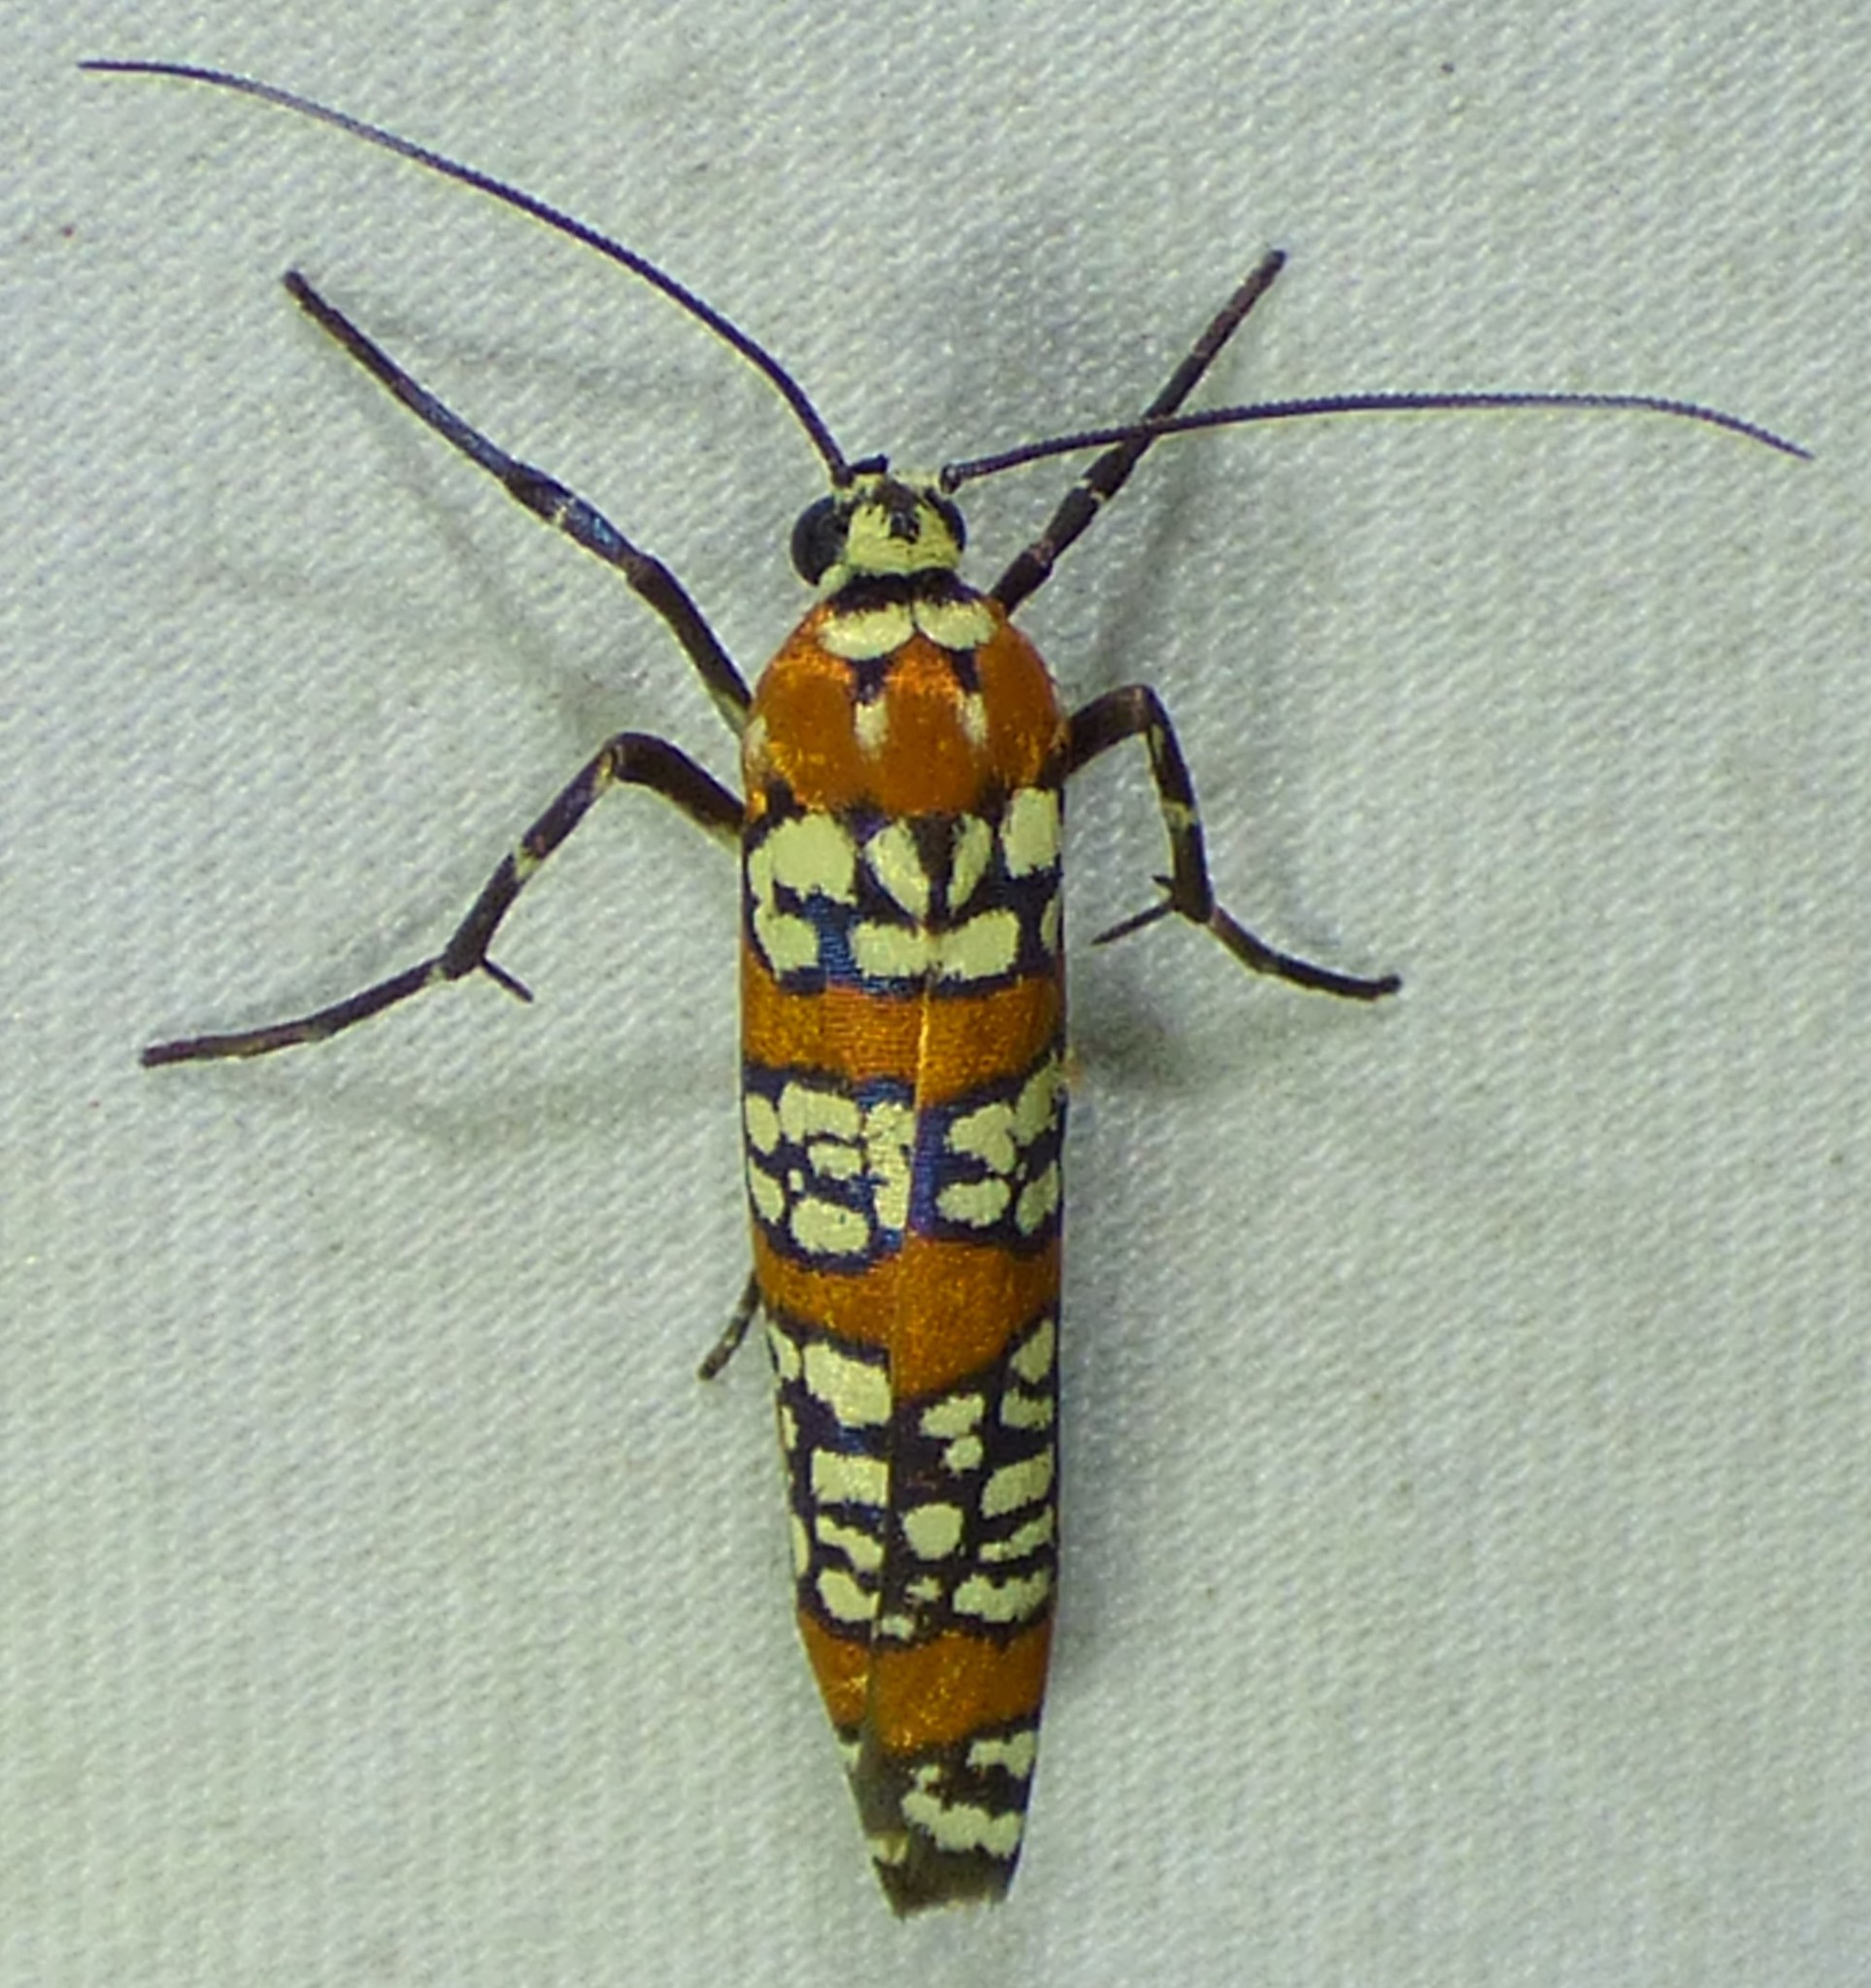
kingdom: Animalia
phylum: Arthropoda
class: Insecta
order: Lepidoptera
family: Attevidae
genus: Atteva
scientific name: Atteva punctella
